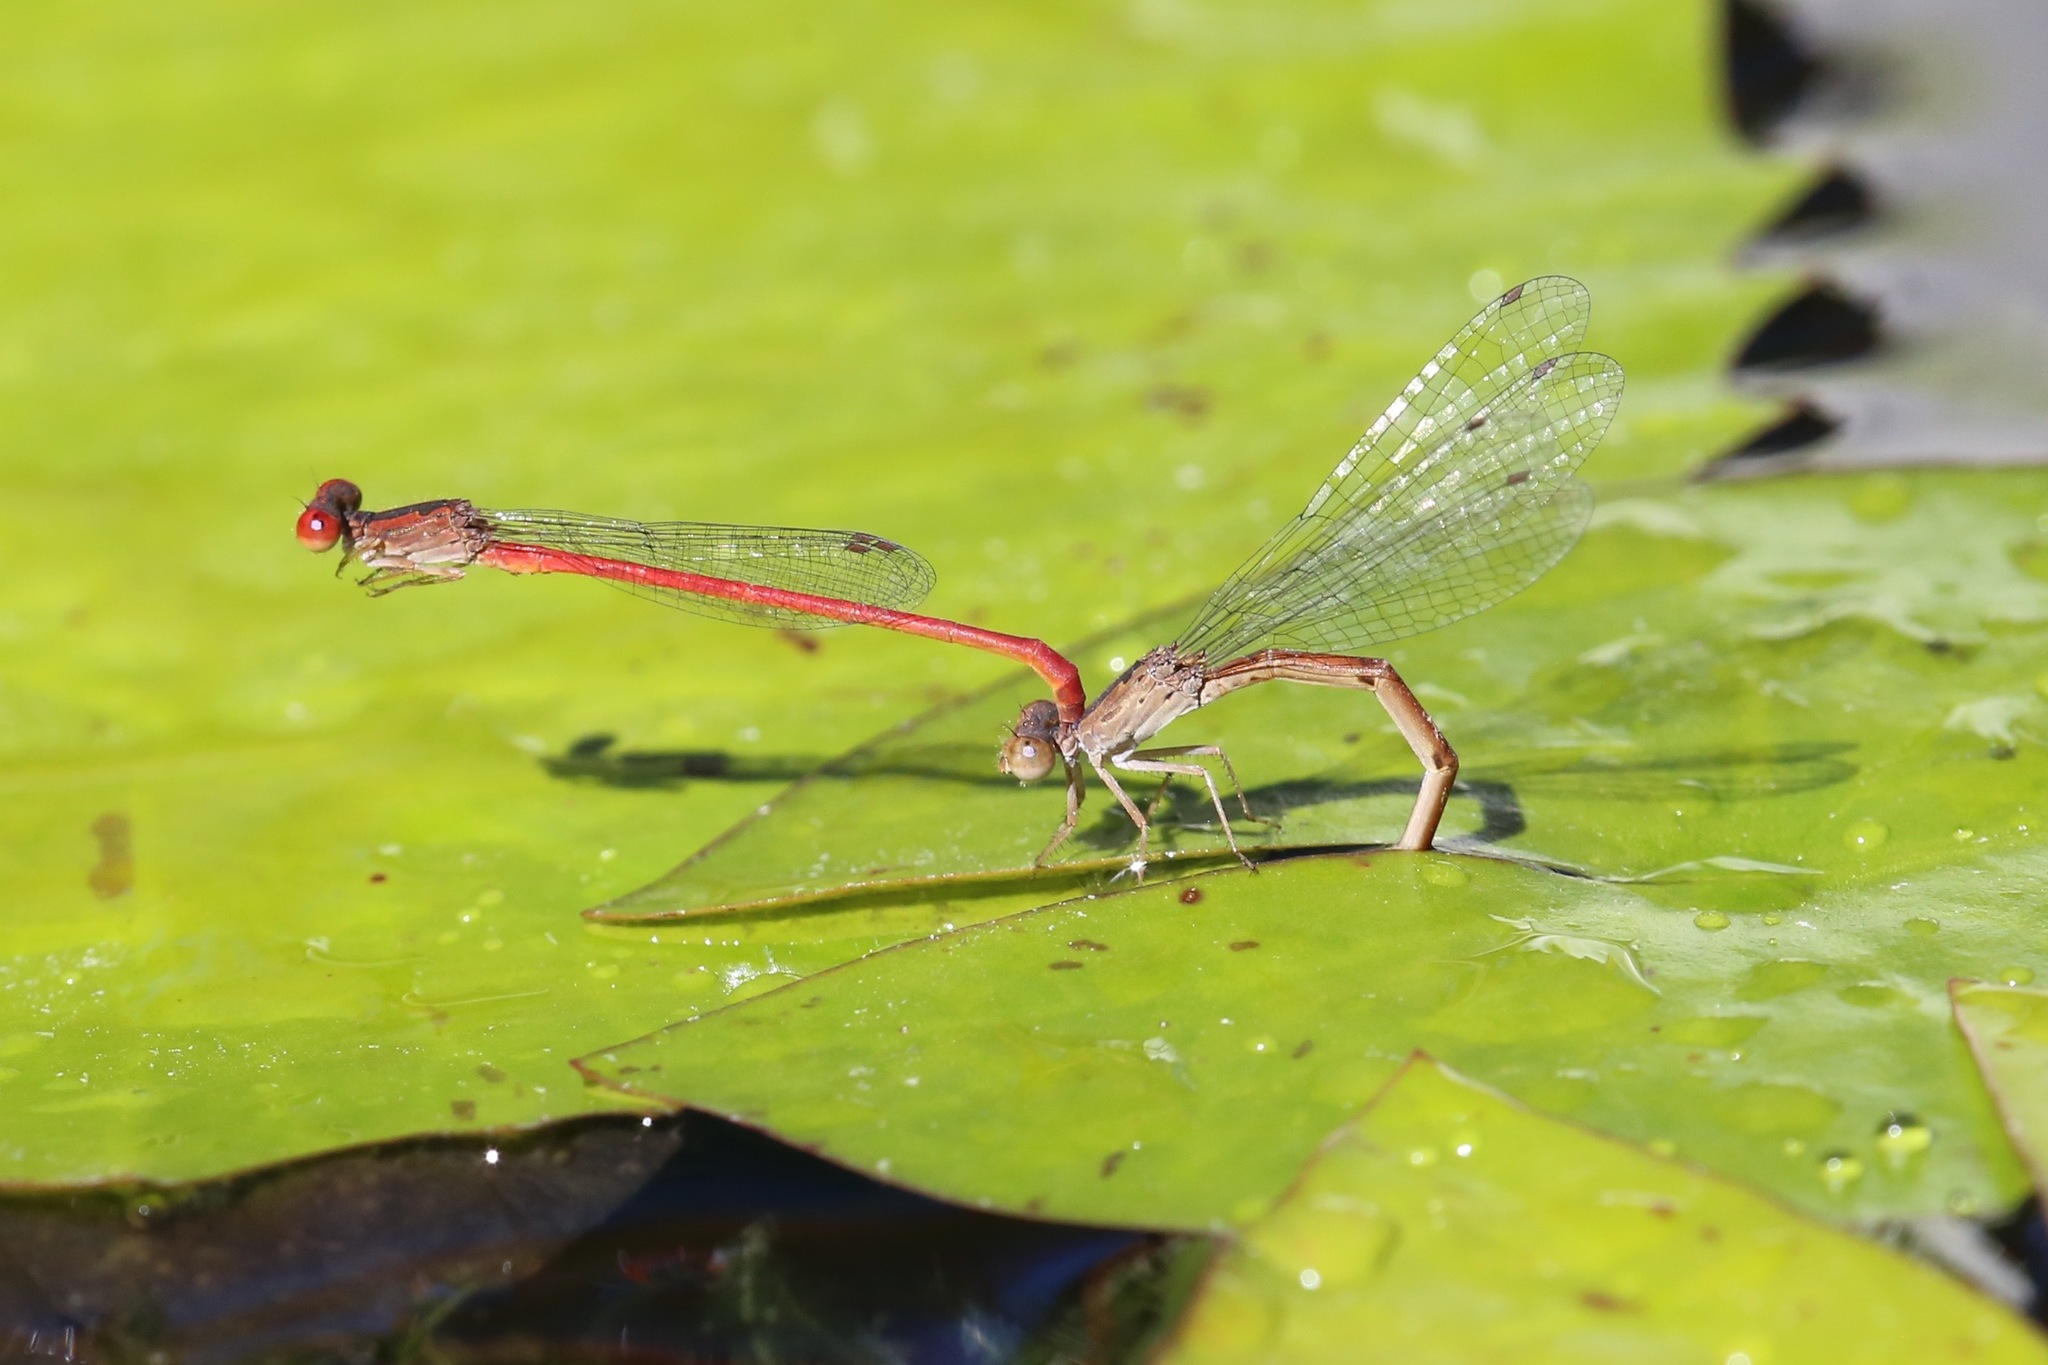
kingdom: Animalia
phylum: Arthropoda
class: Insecta
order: Odonata
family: Coenagrionidae
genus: Telebasis
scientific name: Telebasis salva
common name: Desert firetail
